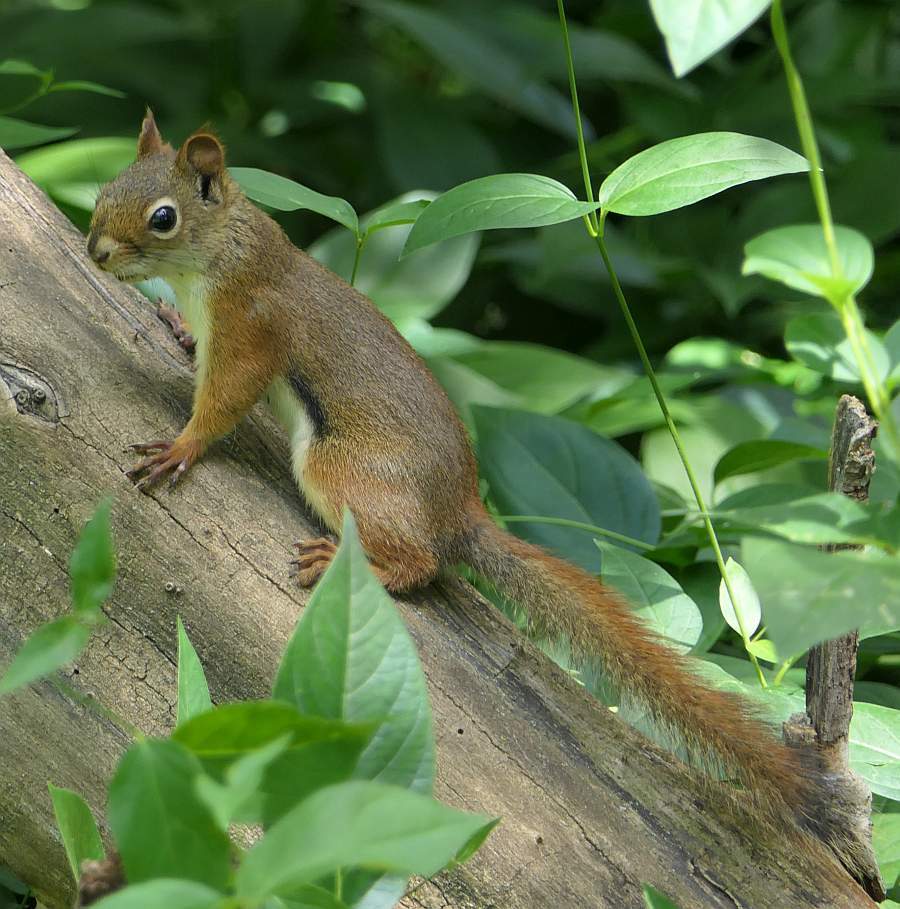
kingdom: Animalia
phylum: Chordata
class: Mammalia
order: Rodentia
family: Sciuridae
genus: Tamiasciurus
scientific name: Tamiasciurus hudsonicus
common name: Red squirrel
